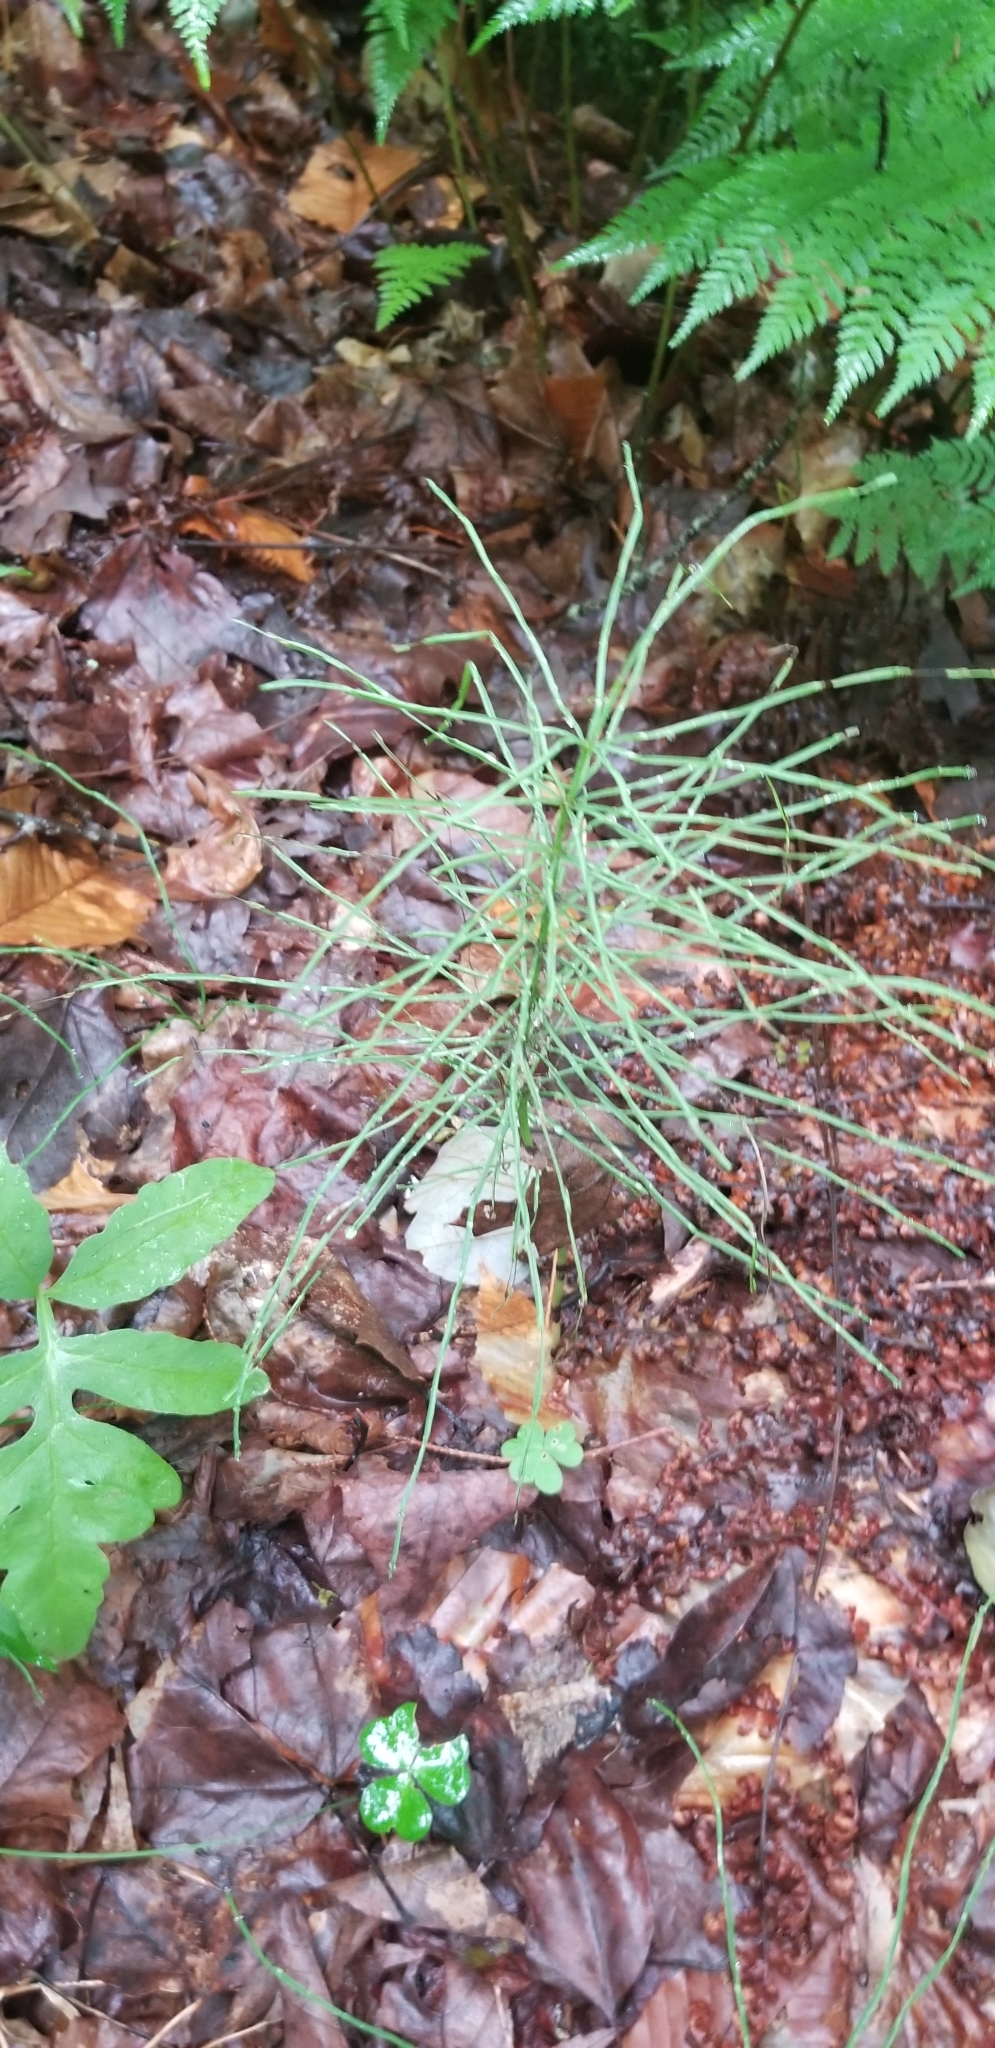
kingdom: Plantae
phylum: Tracheophyta
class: Polypodiopsida
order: Equisetales
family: Equisetaceae
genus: Equisetum
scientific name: Equisetum arvense
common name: Field horsetail
